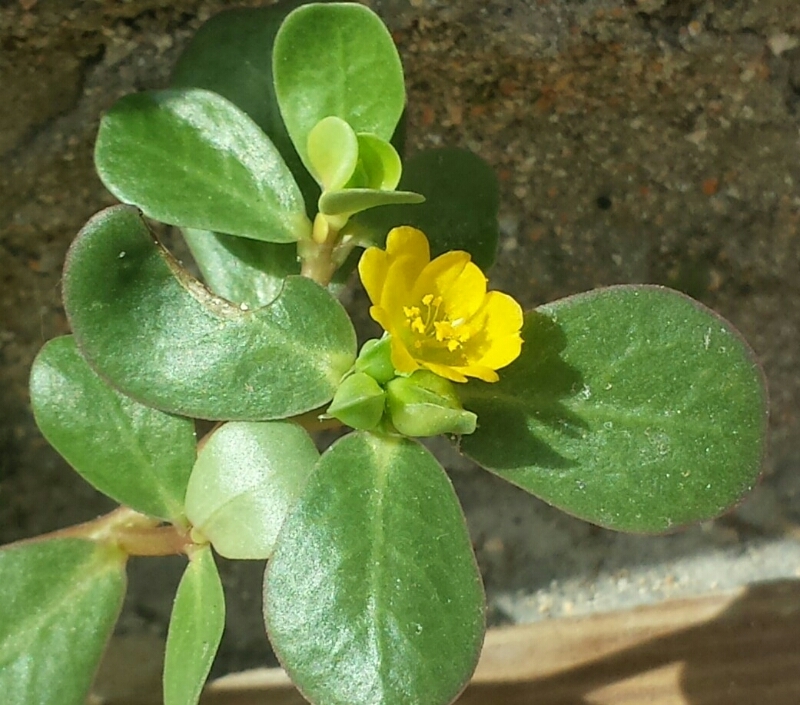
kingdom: Plantae
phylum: Tracheophyta
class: Magnoliopsida
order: Caryophyllales
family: Portulacaceae
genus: Portulaca
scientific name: Portulaca oleracea
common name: Common purslane
